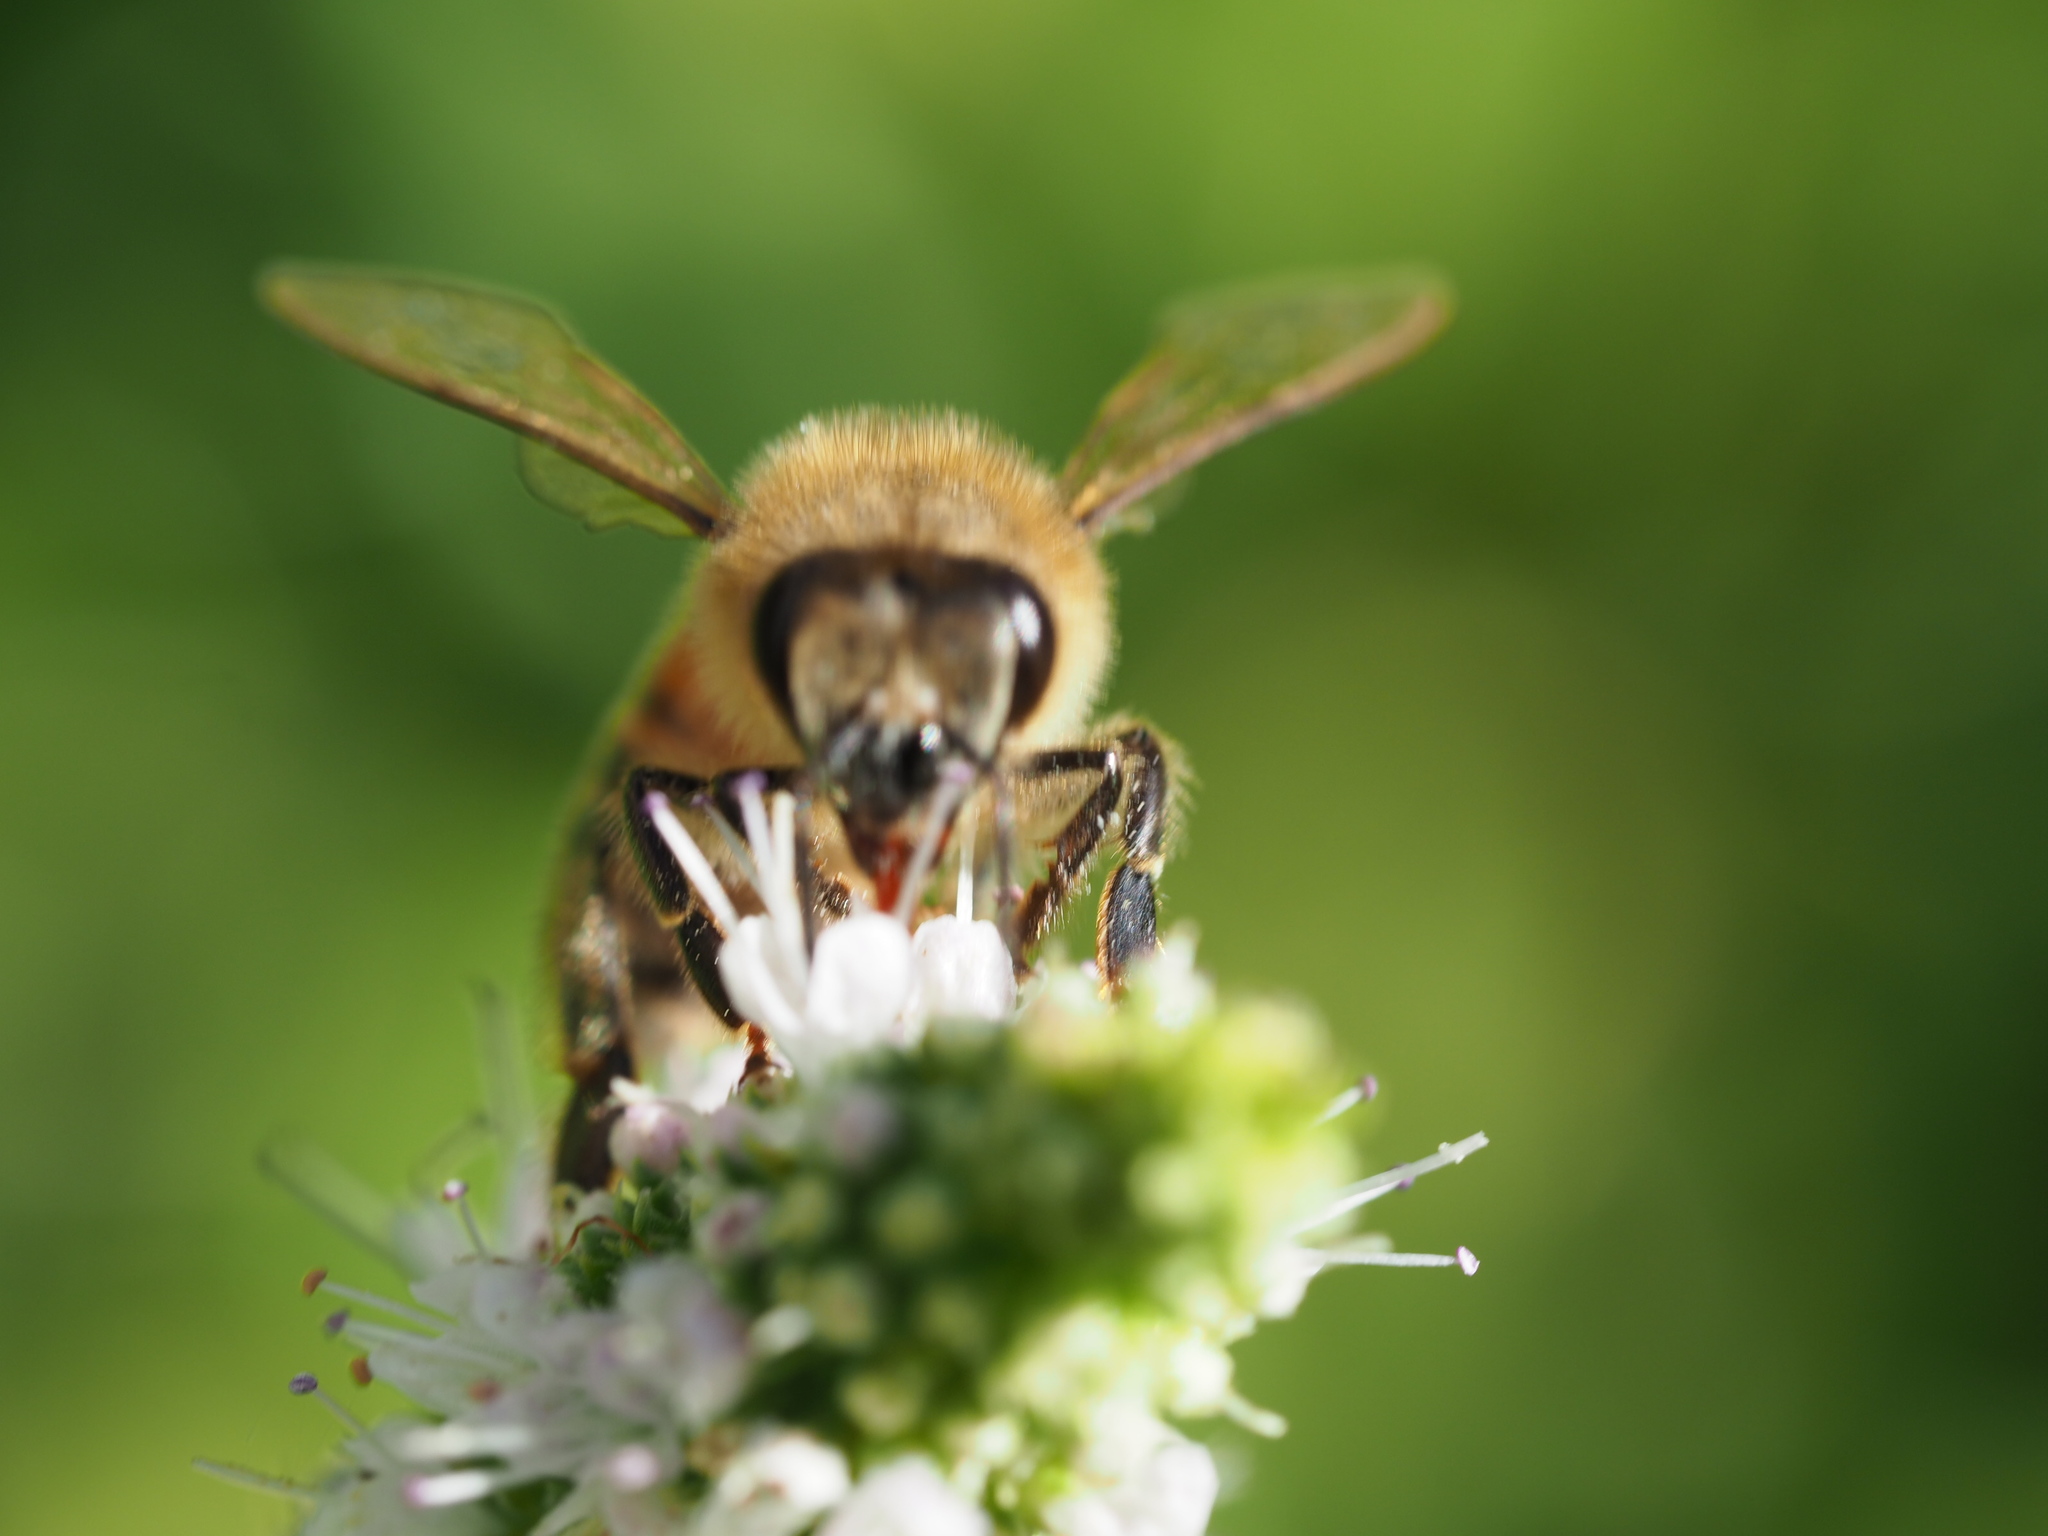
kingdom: Animalia
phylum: Arthropoda
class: Insecta
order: Hymenoptera
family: Apidae
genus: Apis
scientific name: Apis mellifera
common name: Honey bee
